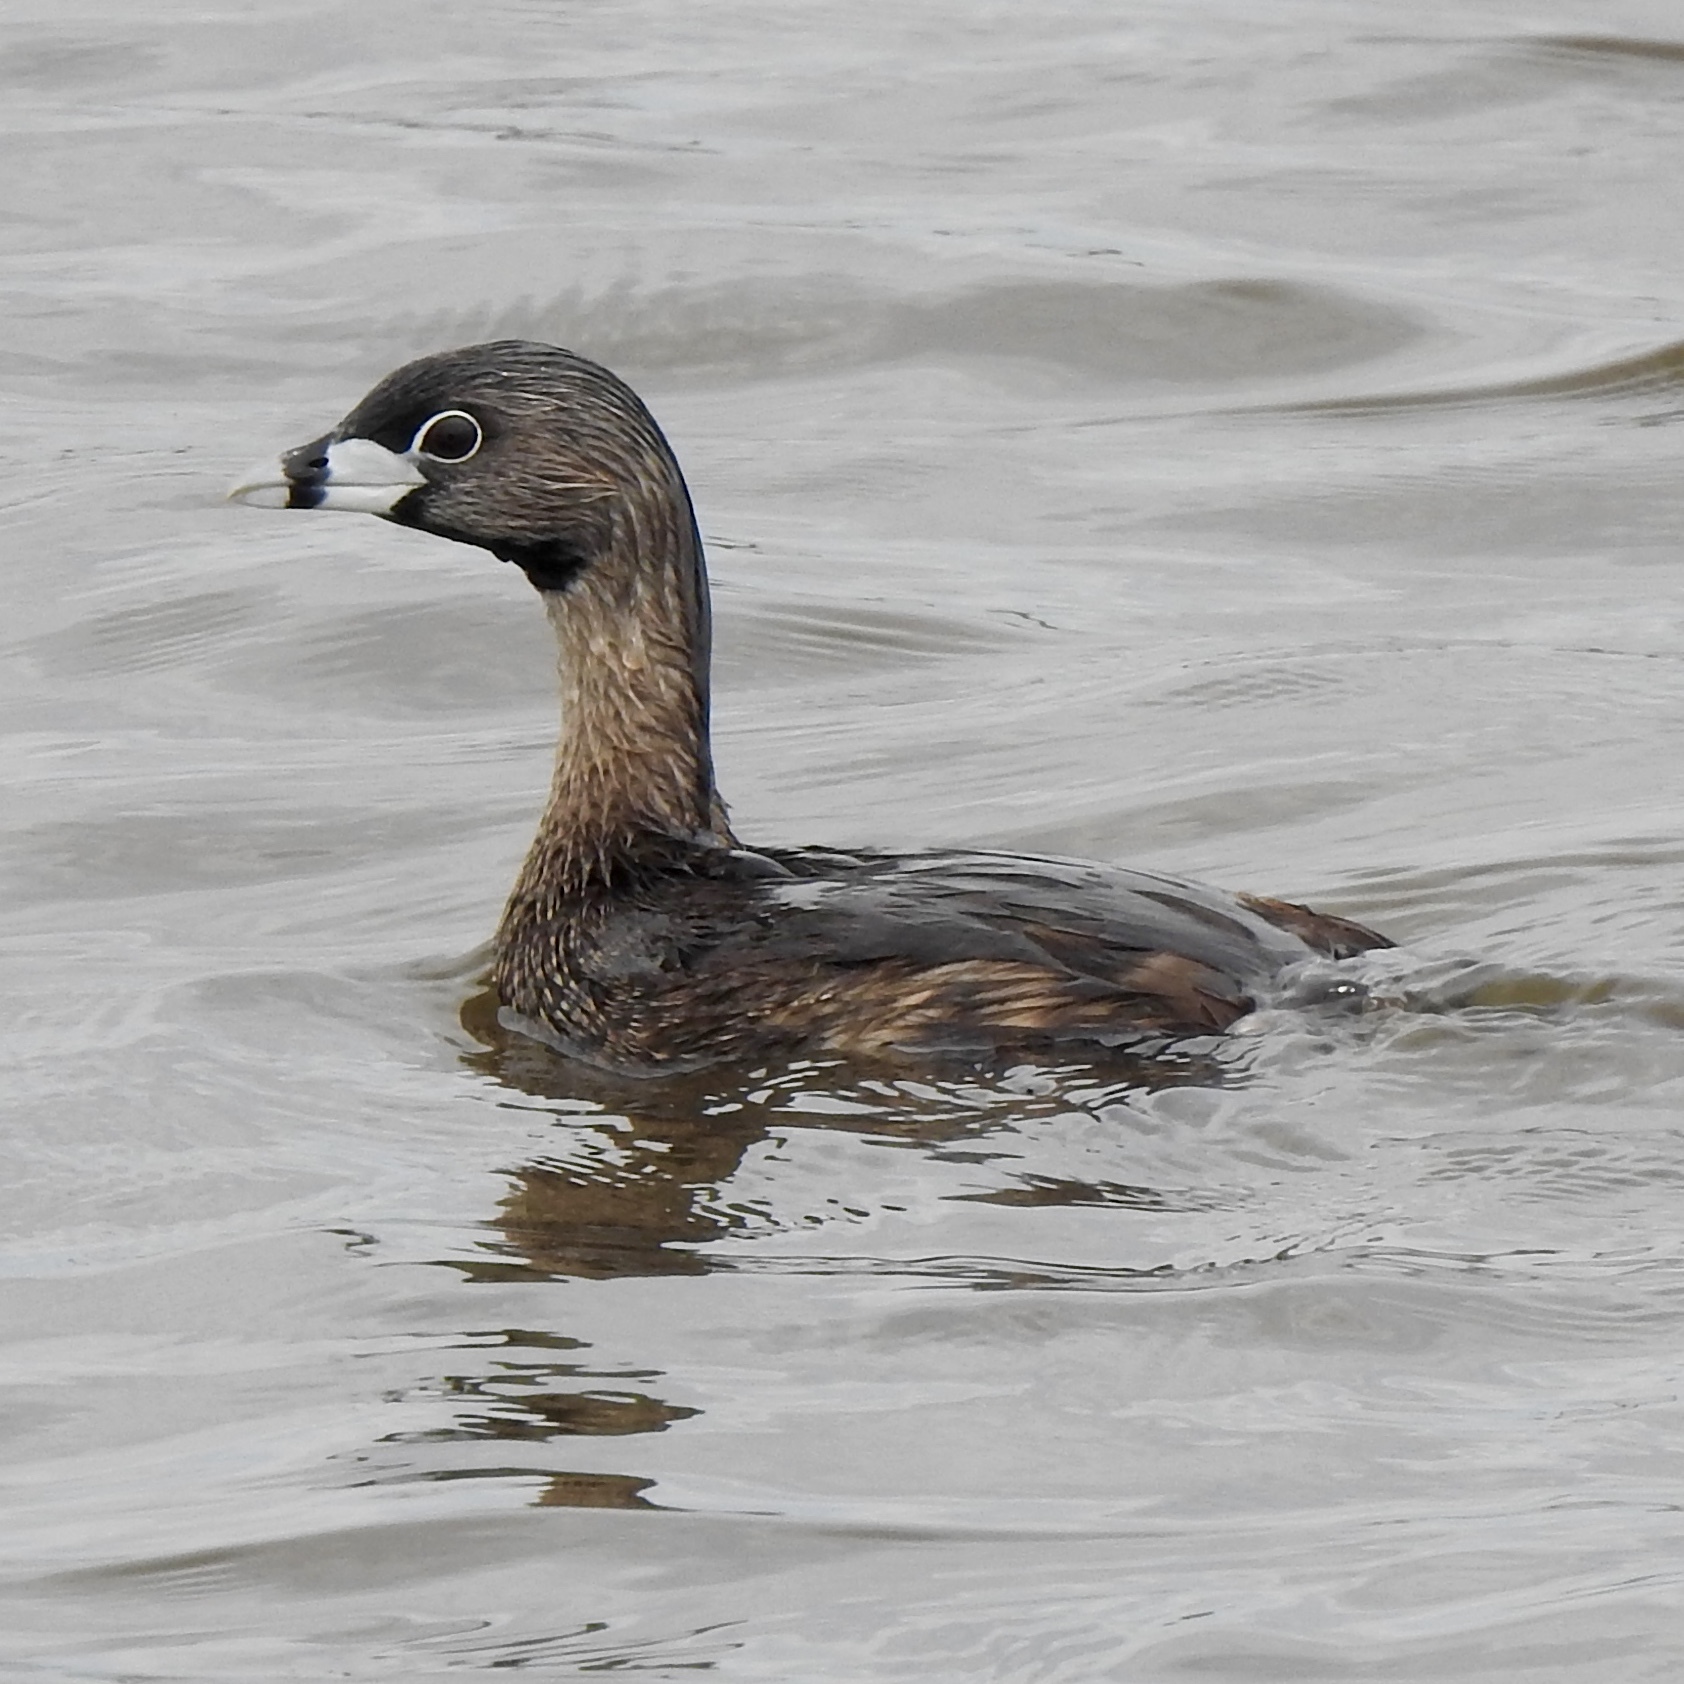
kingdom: Animalia
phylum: Chordata
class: Aves
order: Podicipediformes
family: Podicipedidae
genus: Podilymbus
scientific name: Podilymbus podiceps
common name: Pied-billed grebe
